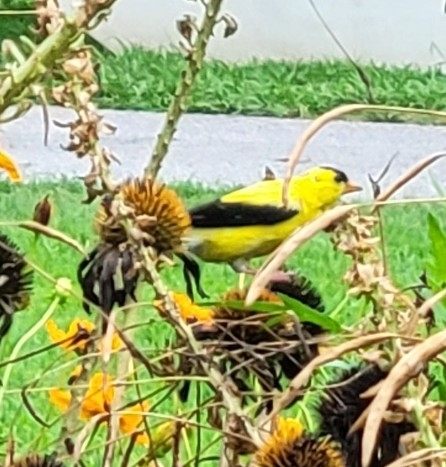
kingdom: Animalia
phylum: Chordata
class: Aves
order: Passeriformes
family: Fringillidae
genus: Spinus
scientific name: Spinus tristis
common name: American goldfinch
